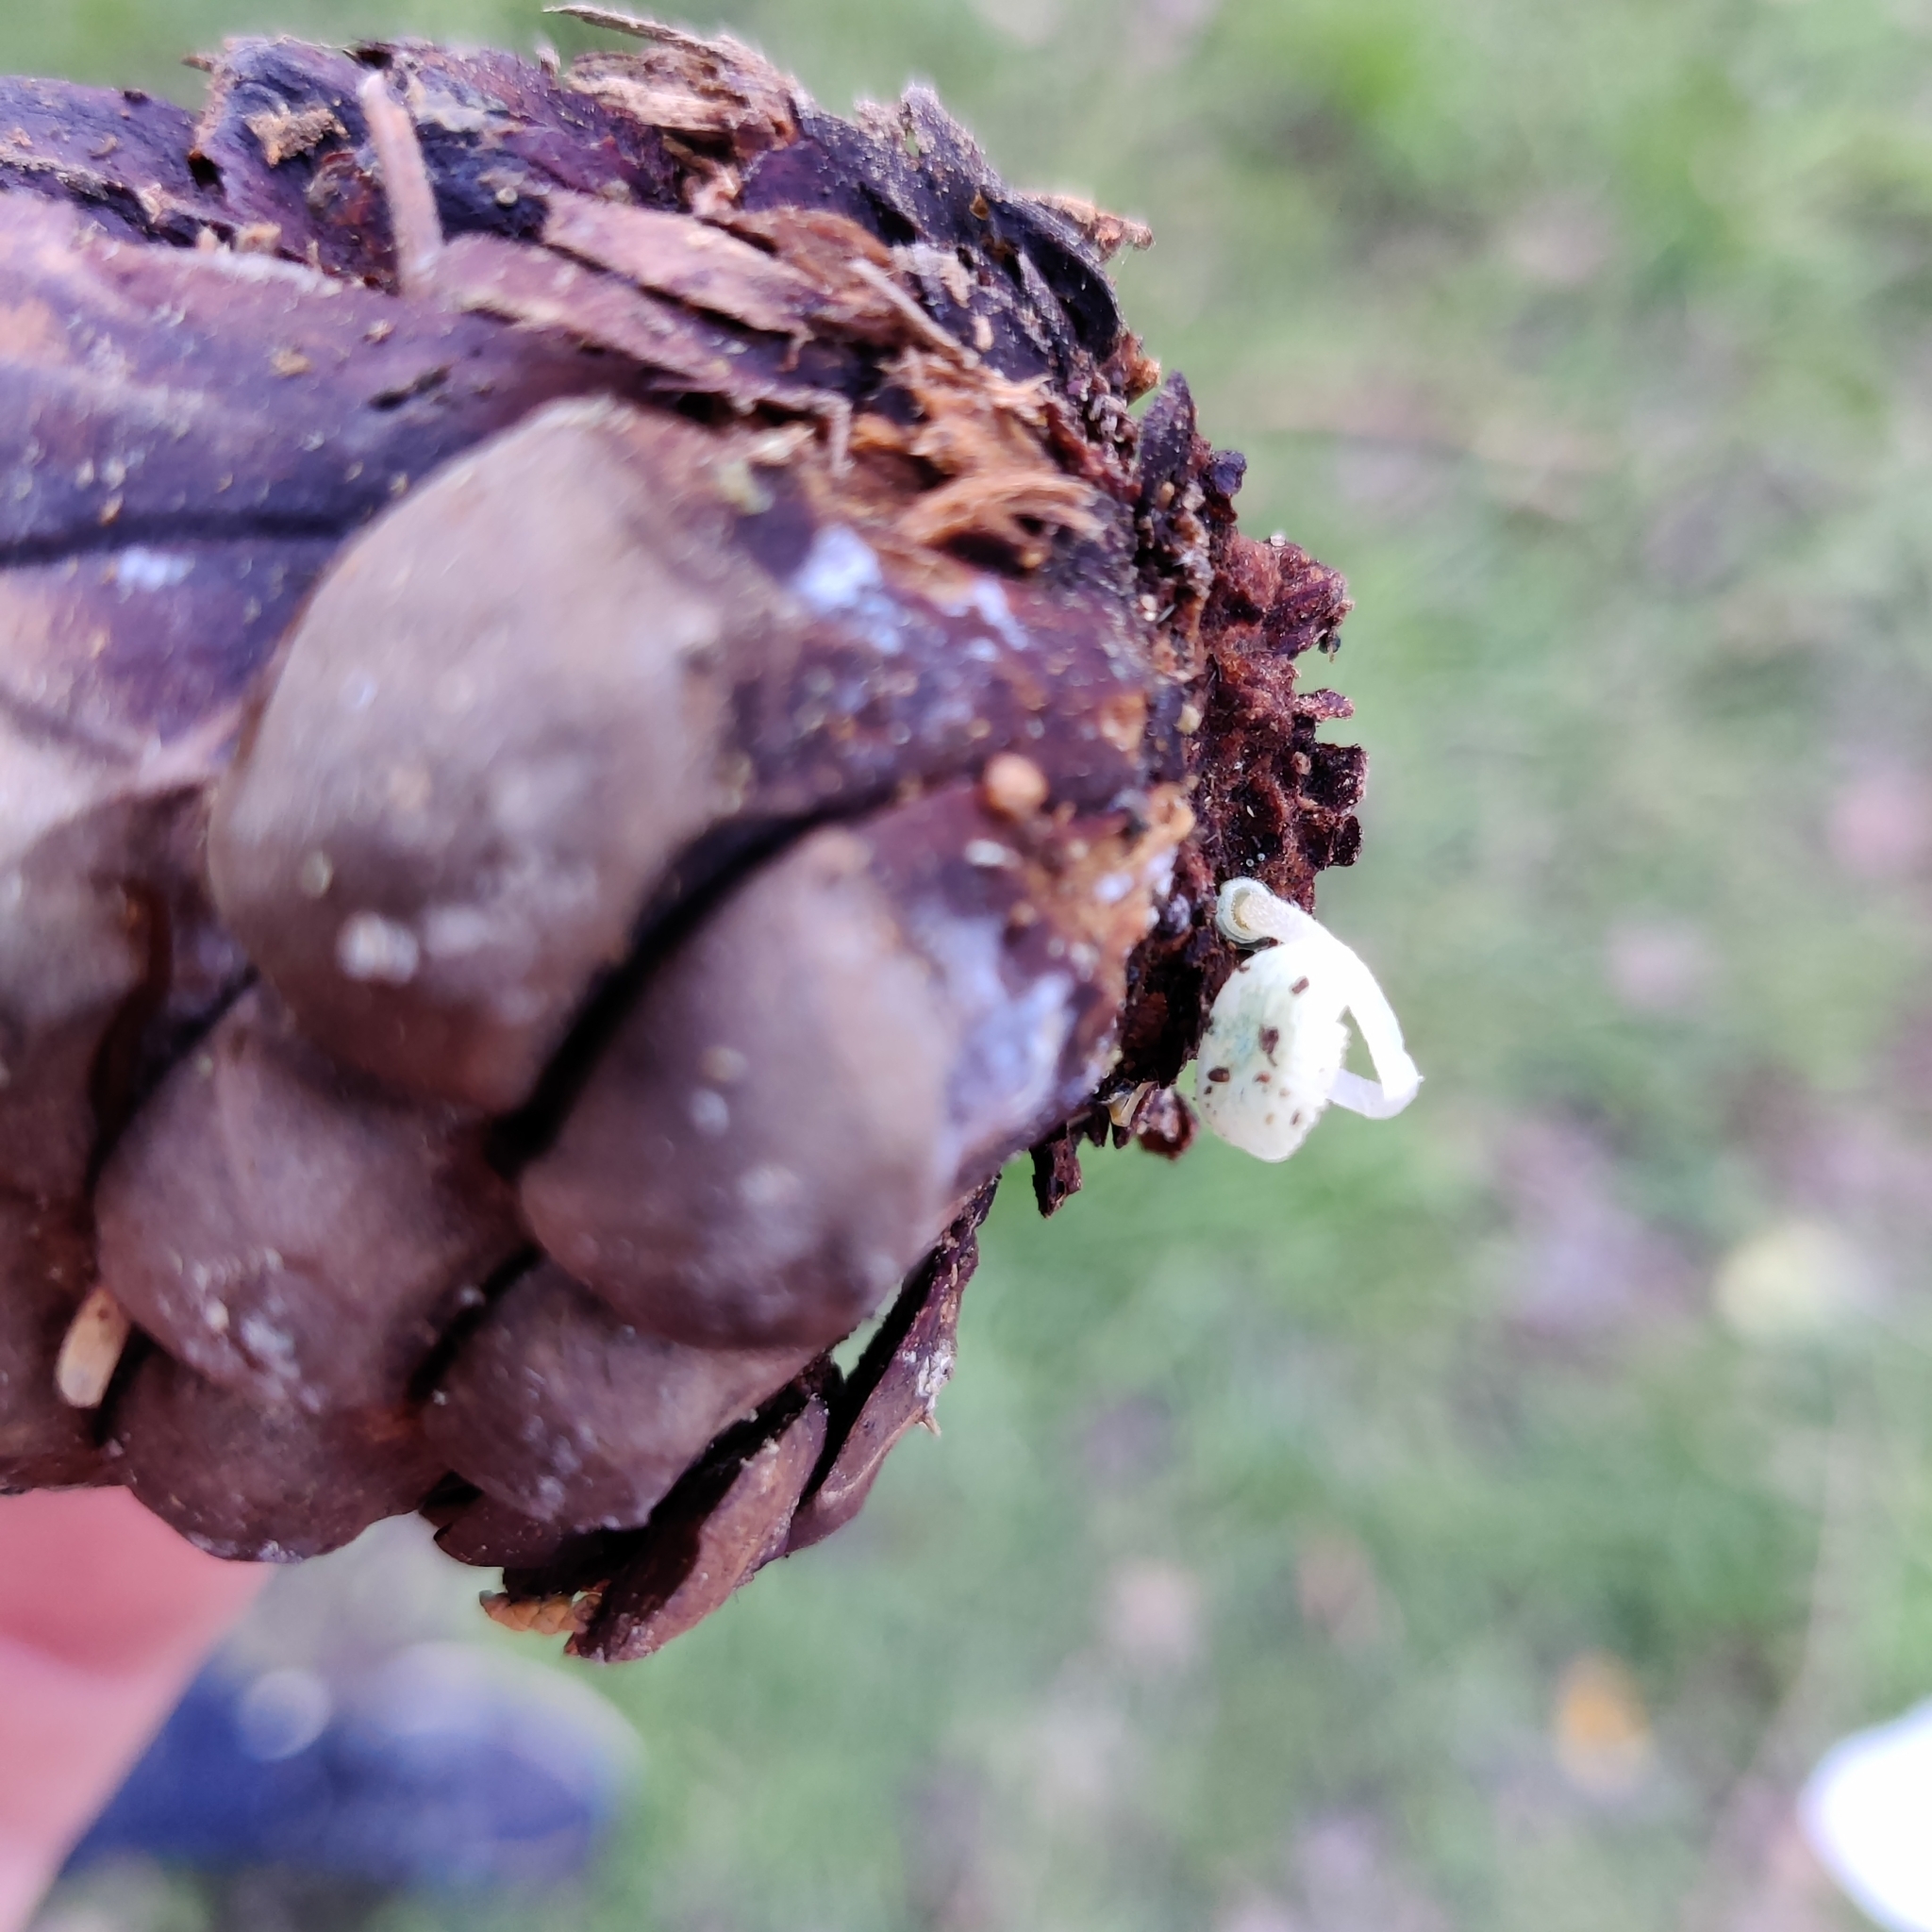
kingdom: Fungi
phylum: Basidiomycota
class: Agaricomycetes
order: Agaricales
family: Mycenaceae
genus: Mycena
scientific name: Mycena interrupta
